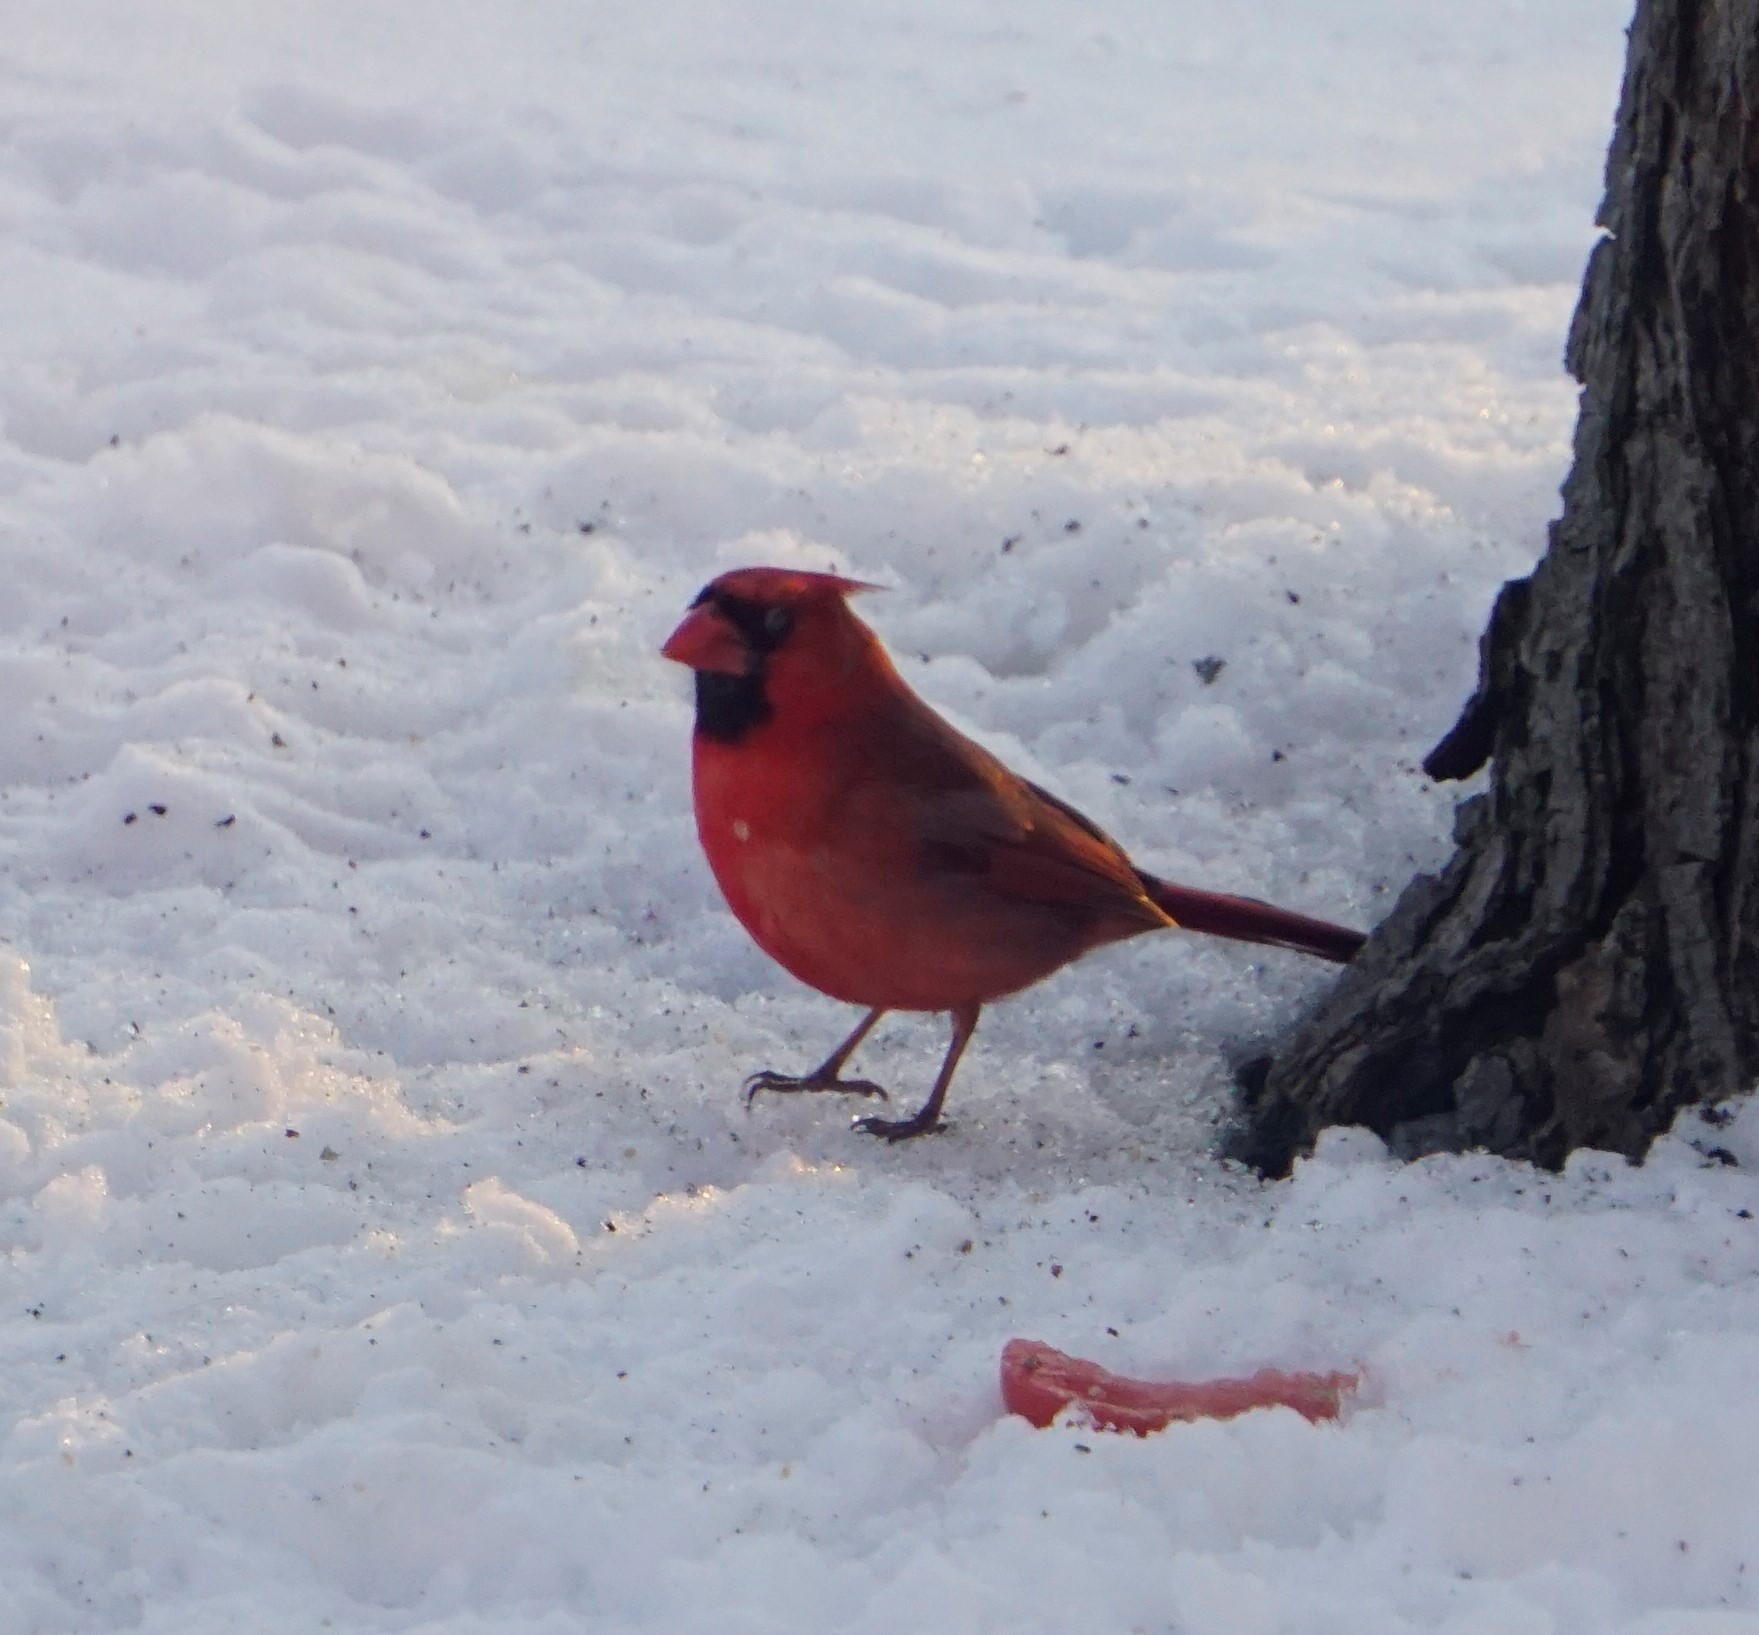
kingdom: Animalia
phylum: Chordata
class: Aves
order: Passeriformes
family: Cardinalidae
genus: Cardinalis
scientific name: Cardinalis cardinalis
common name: Northern cardinal
